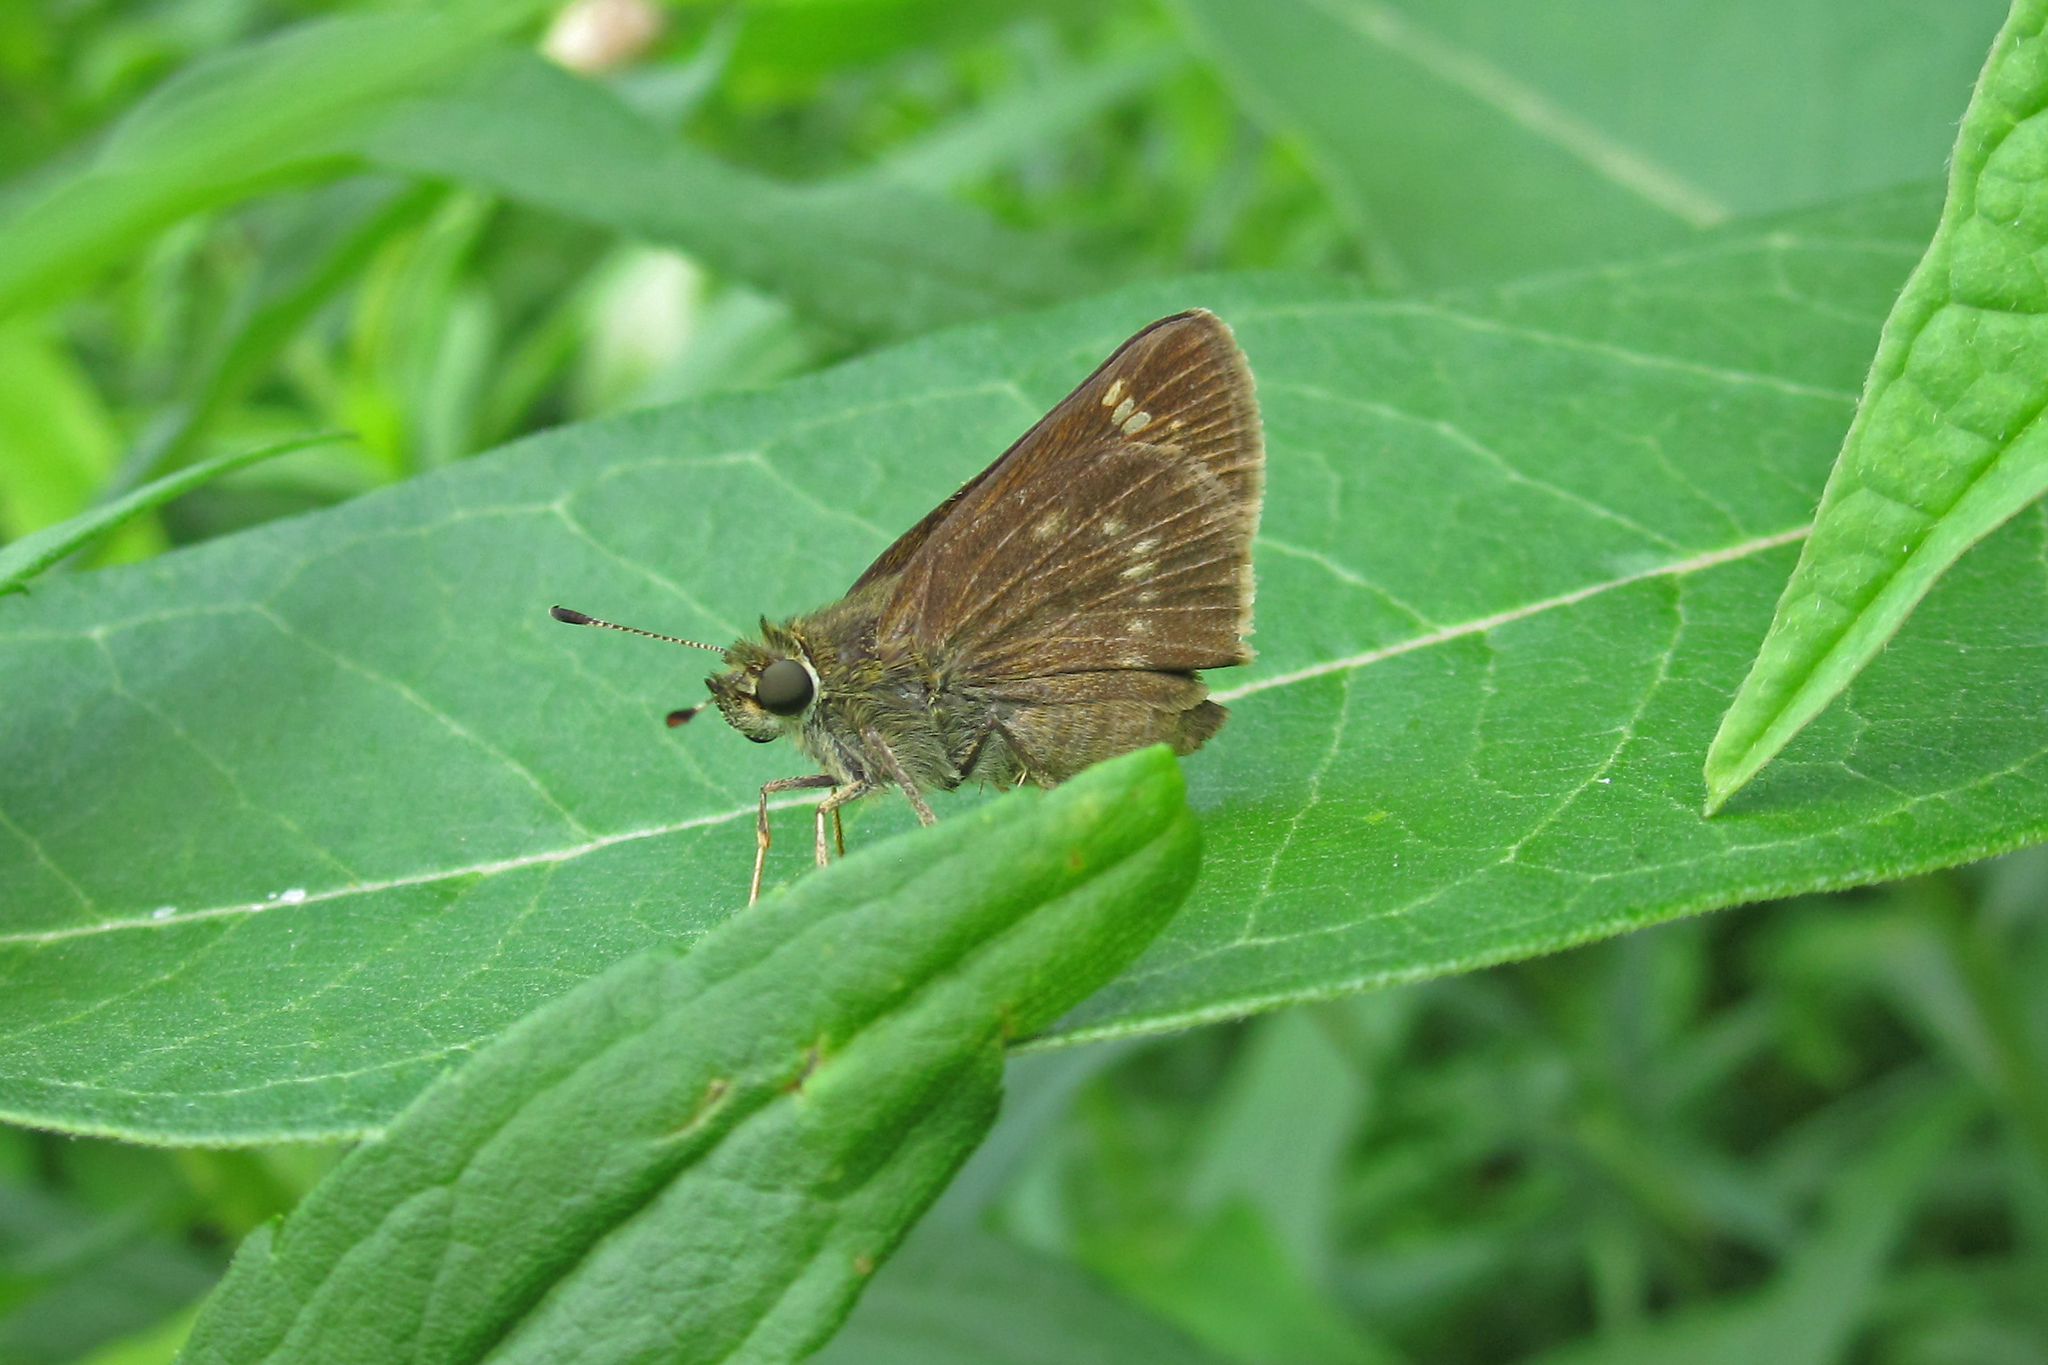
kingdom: Animalia
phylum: Arthropoda
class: Insecta
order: Lepidoptera
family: Hesperiidae
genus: Vernia
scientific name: Vernia verna
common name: Little glassywing
